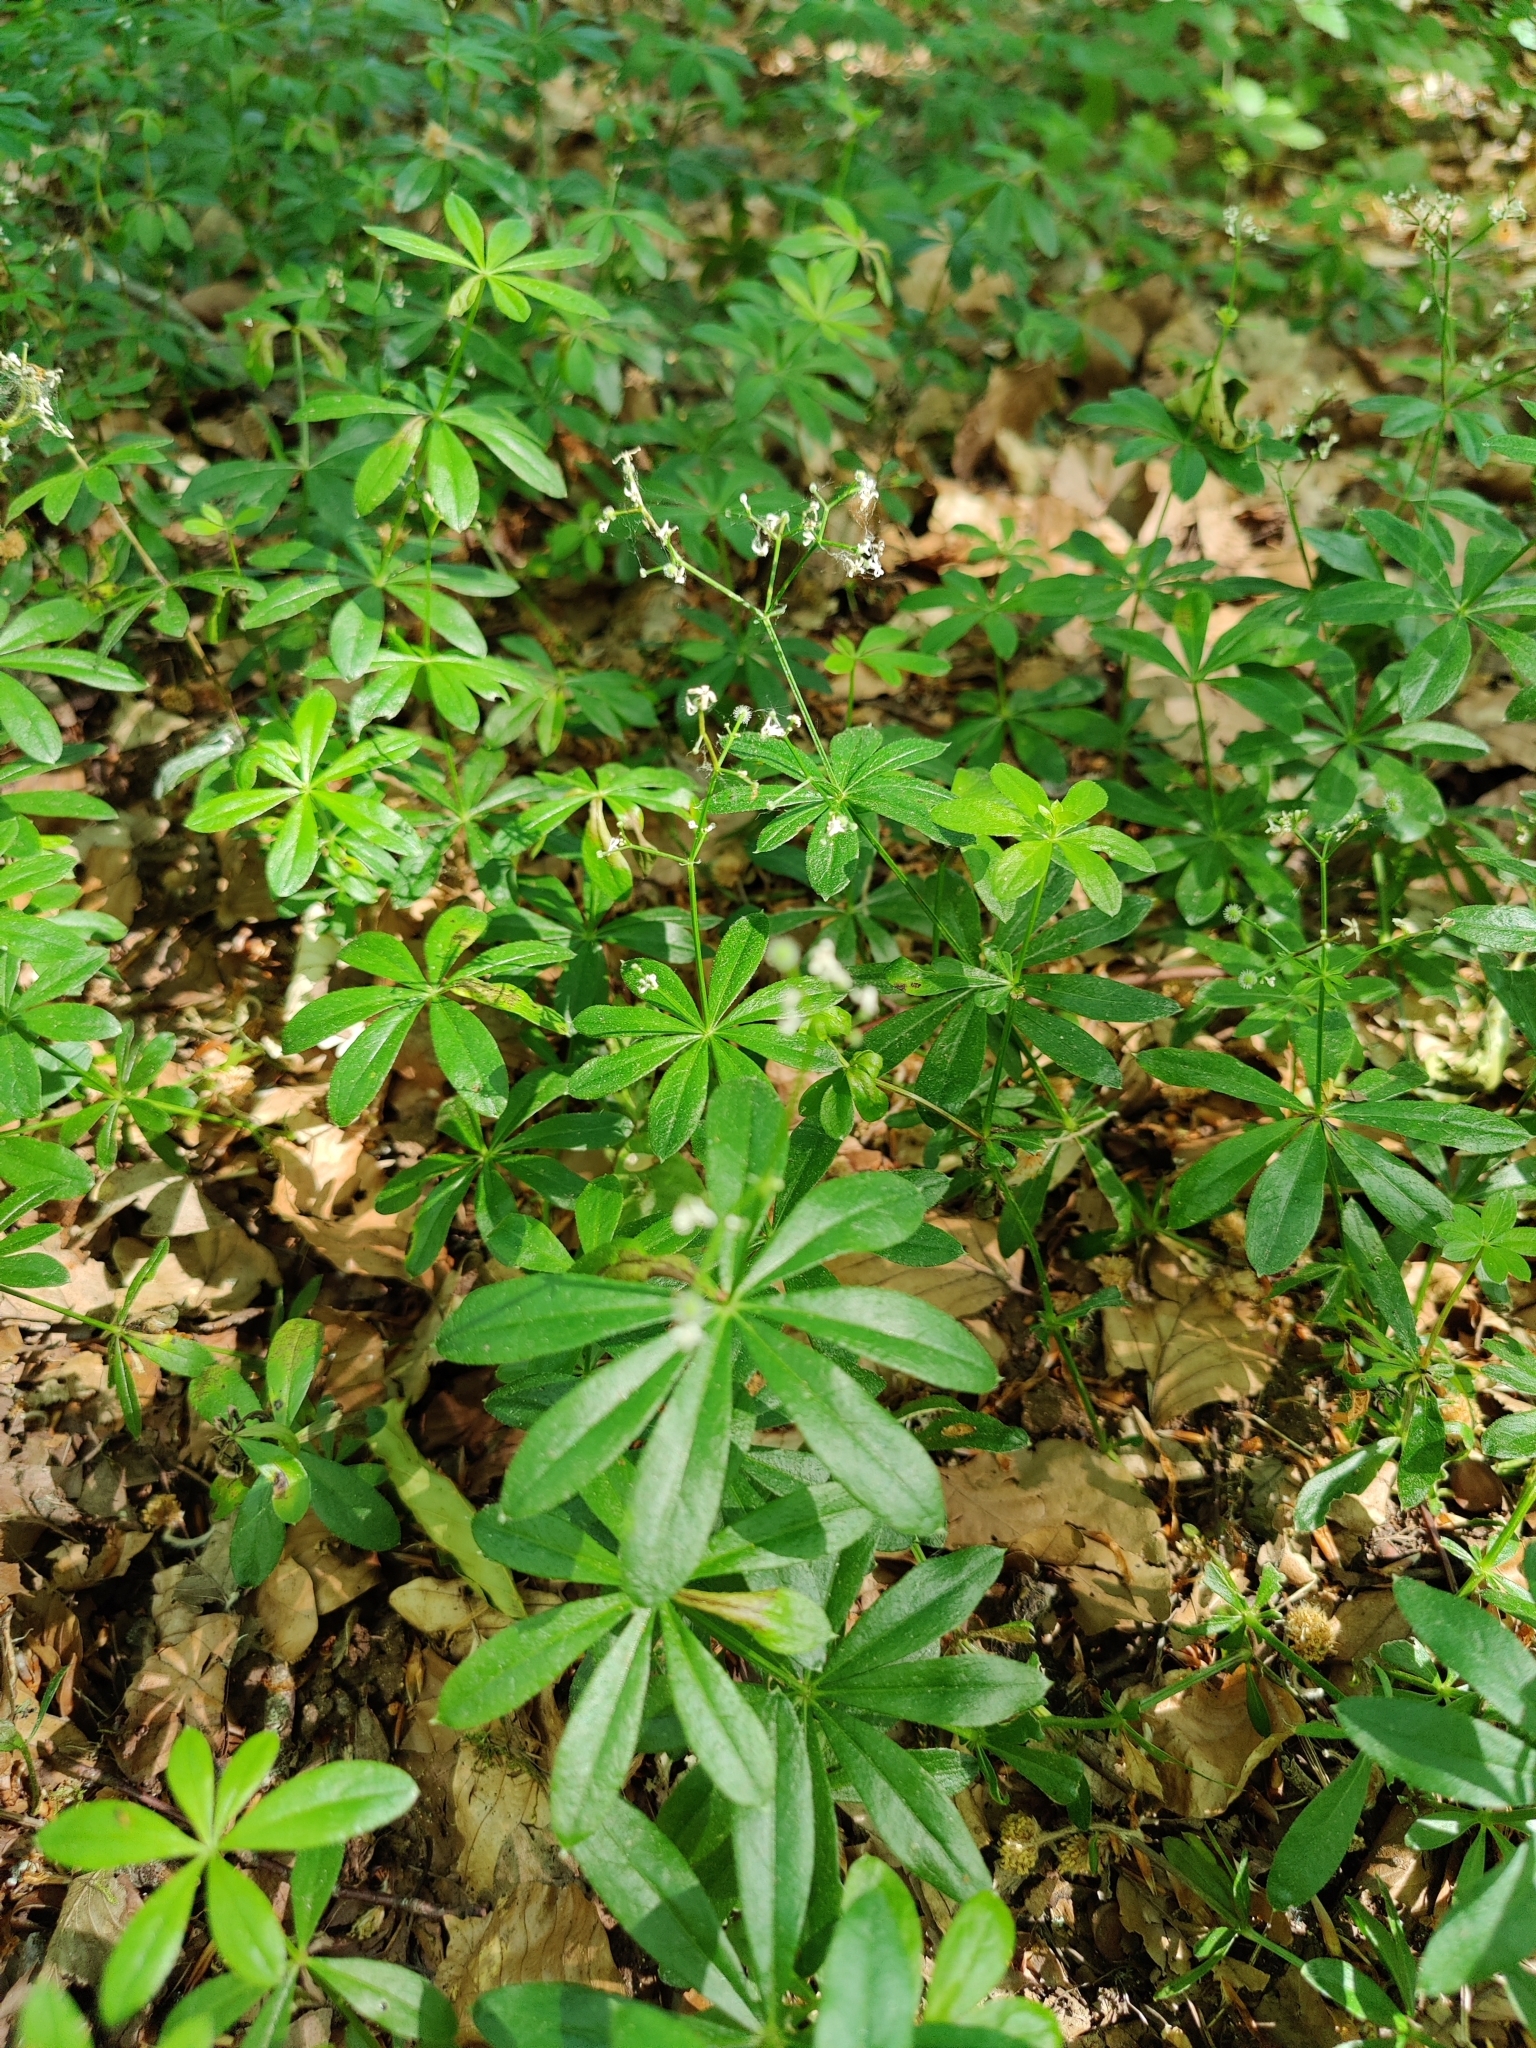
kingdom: Plantae
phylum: Tracheophyta
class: Magnoliopsida
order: Gentianales
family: Rubiaceae
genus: Galium
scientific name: Galium odoratum
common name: Sweet woodruff
